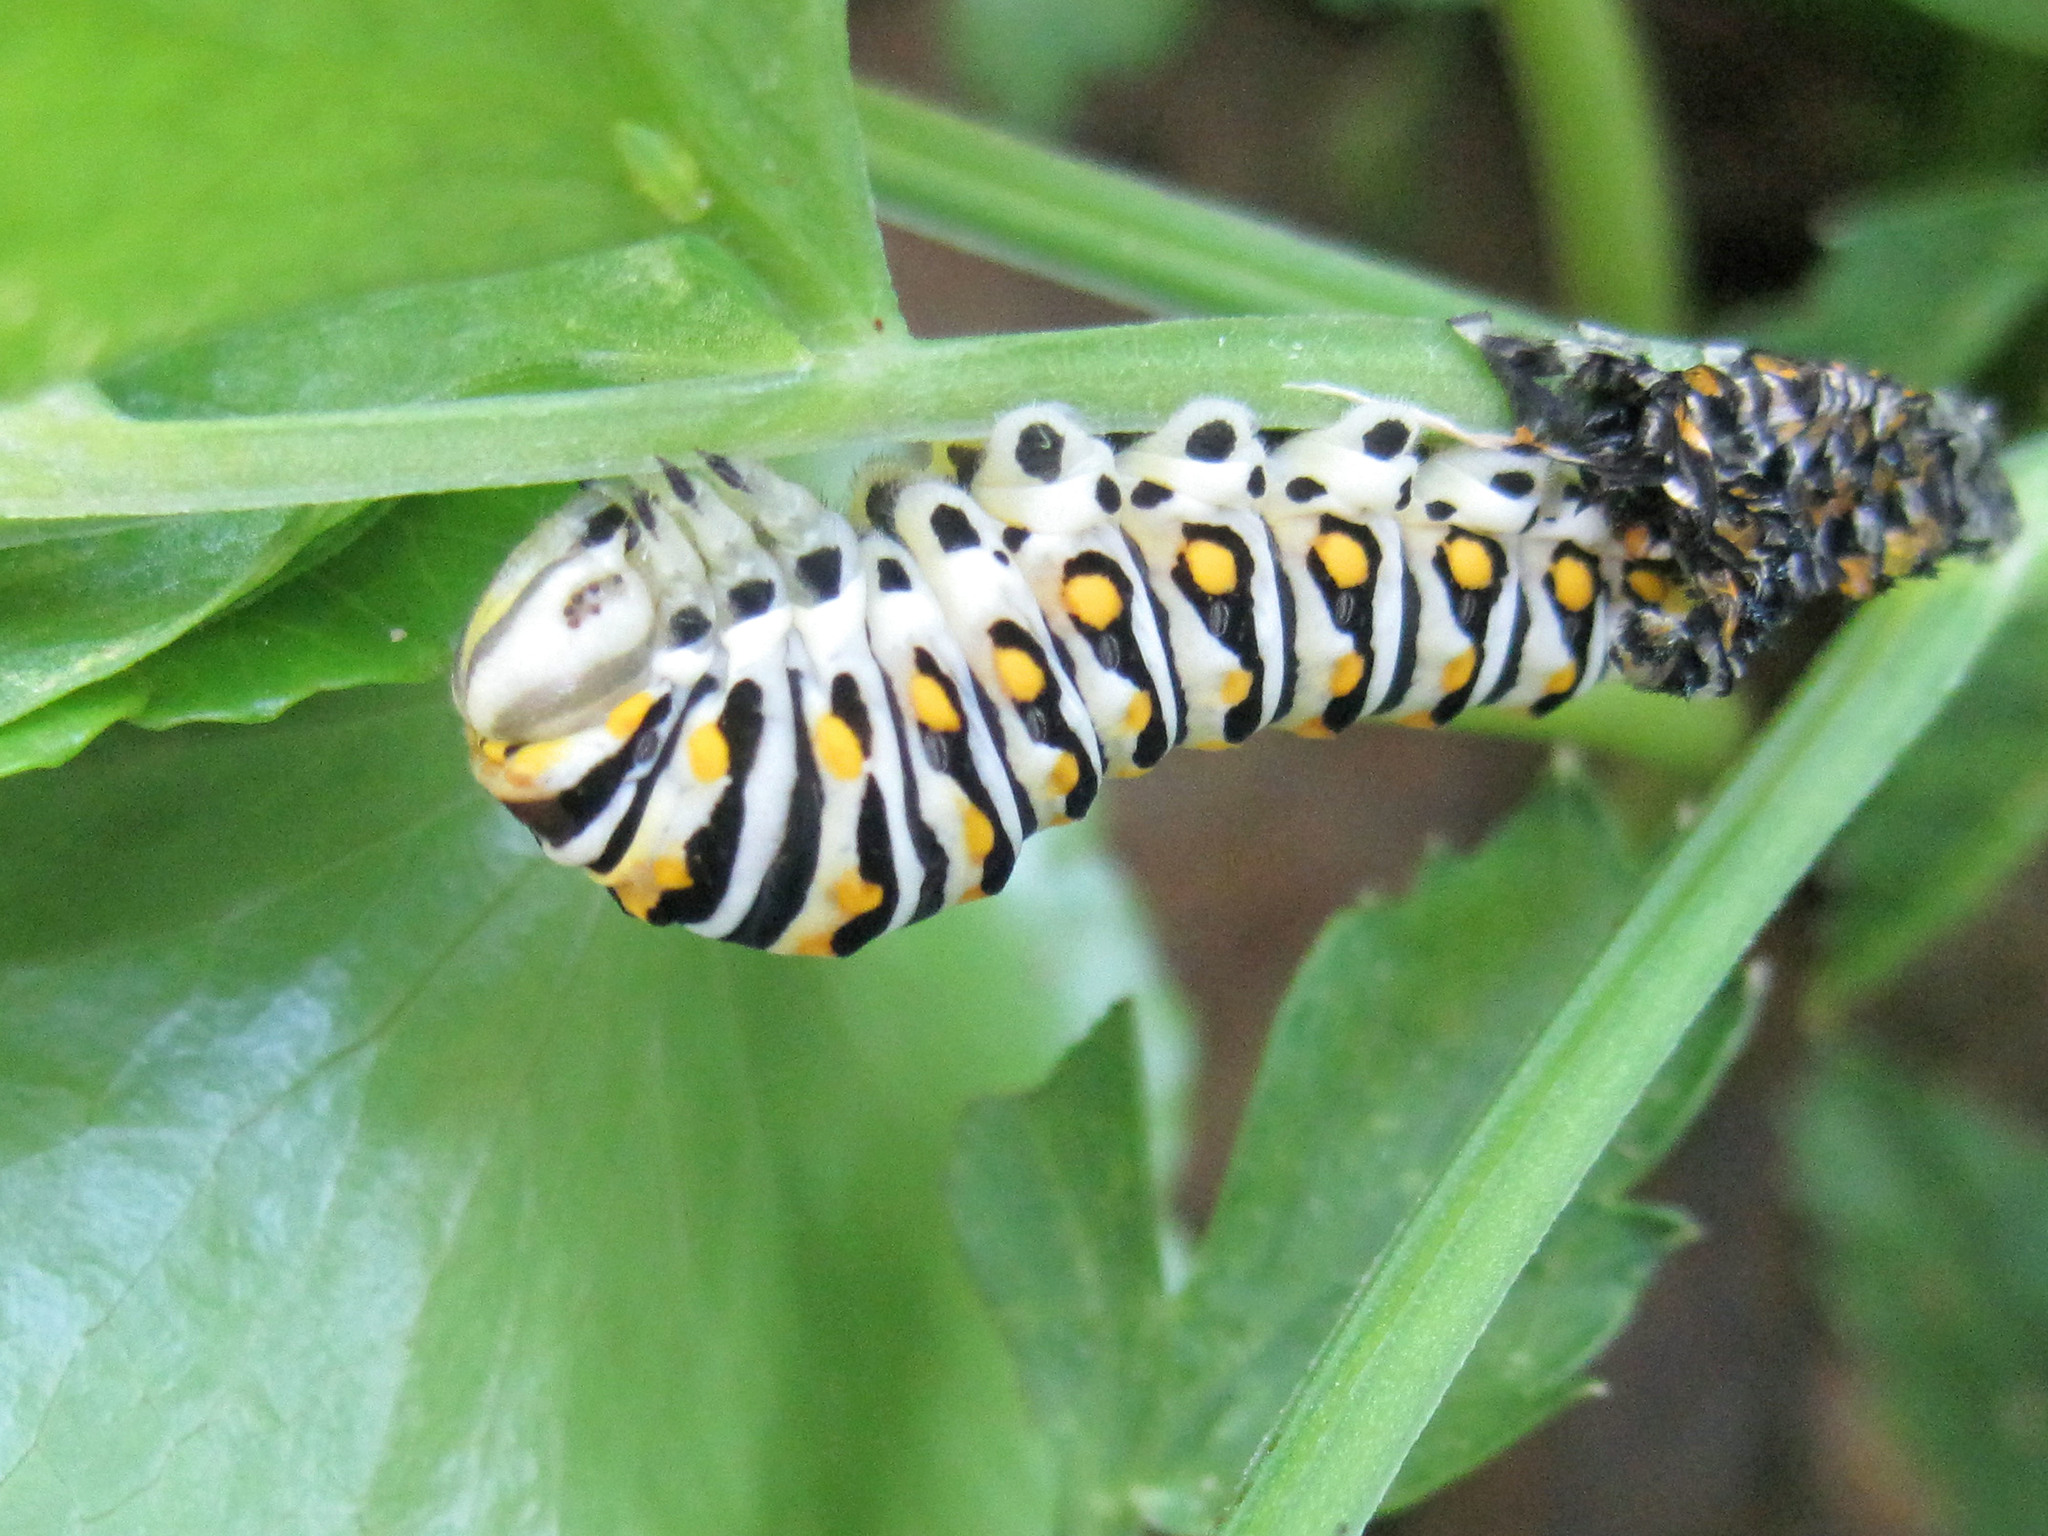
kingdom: Animalia
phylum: Arthropoda
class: Insecta
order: Lepidoptera
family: Papilionidae
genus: Papilio
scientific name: Papilio polyxenes
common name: Black swallowtail
